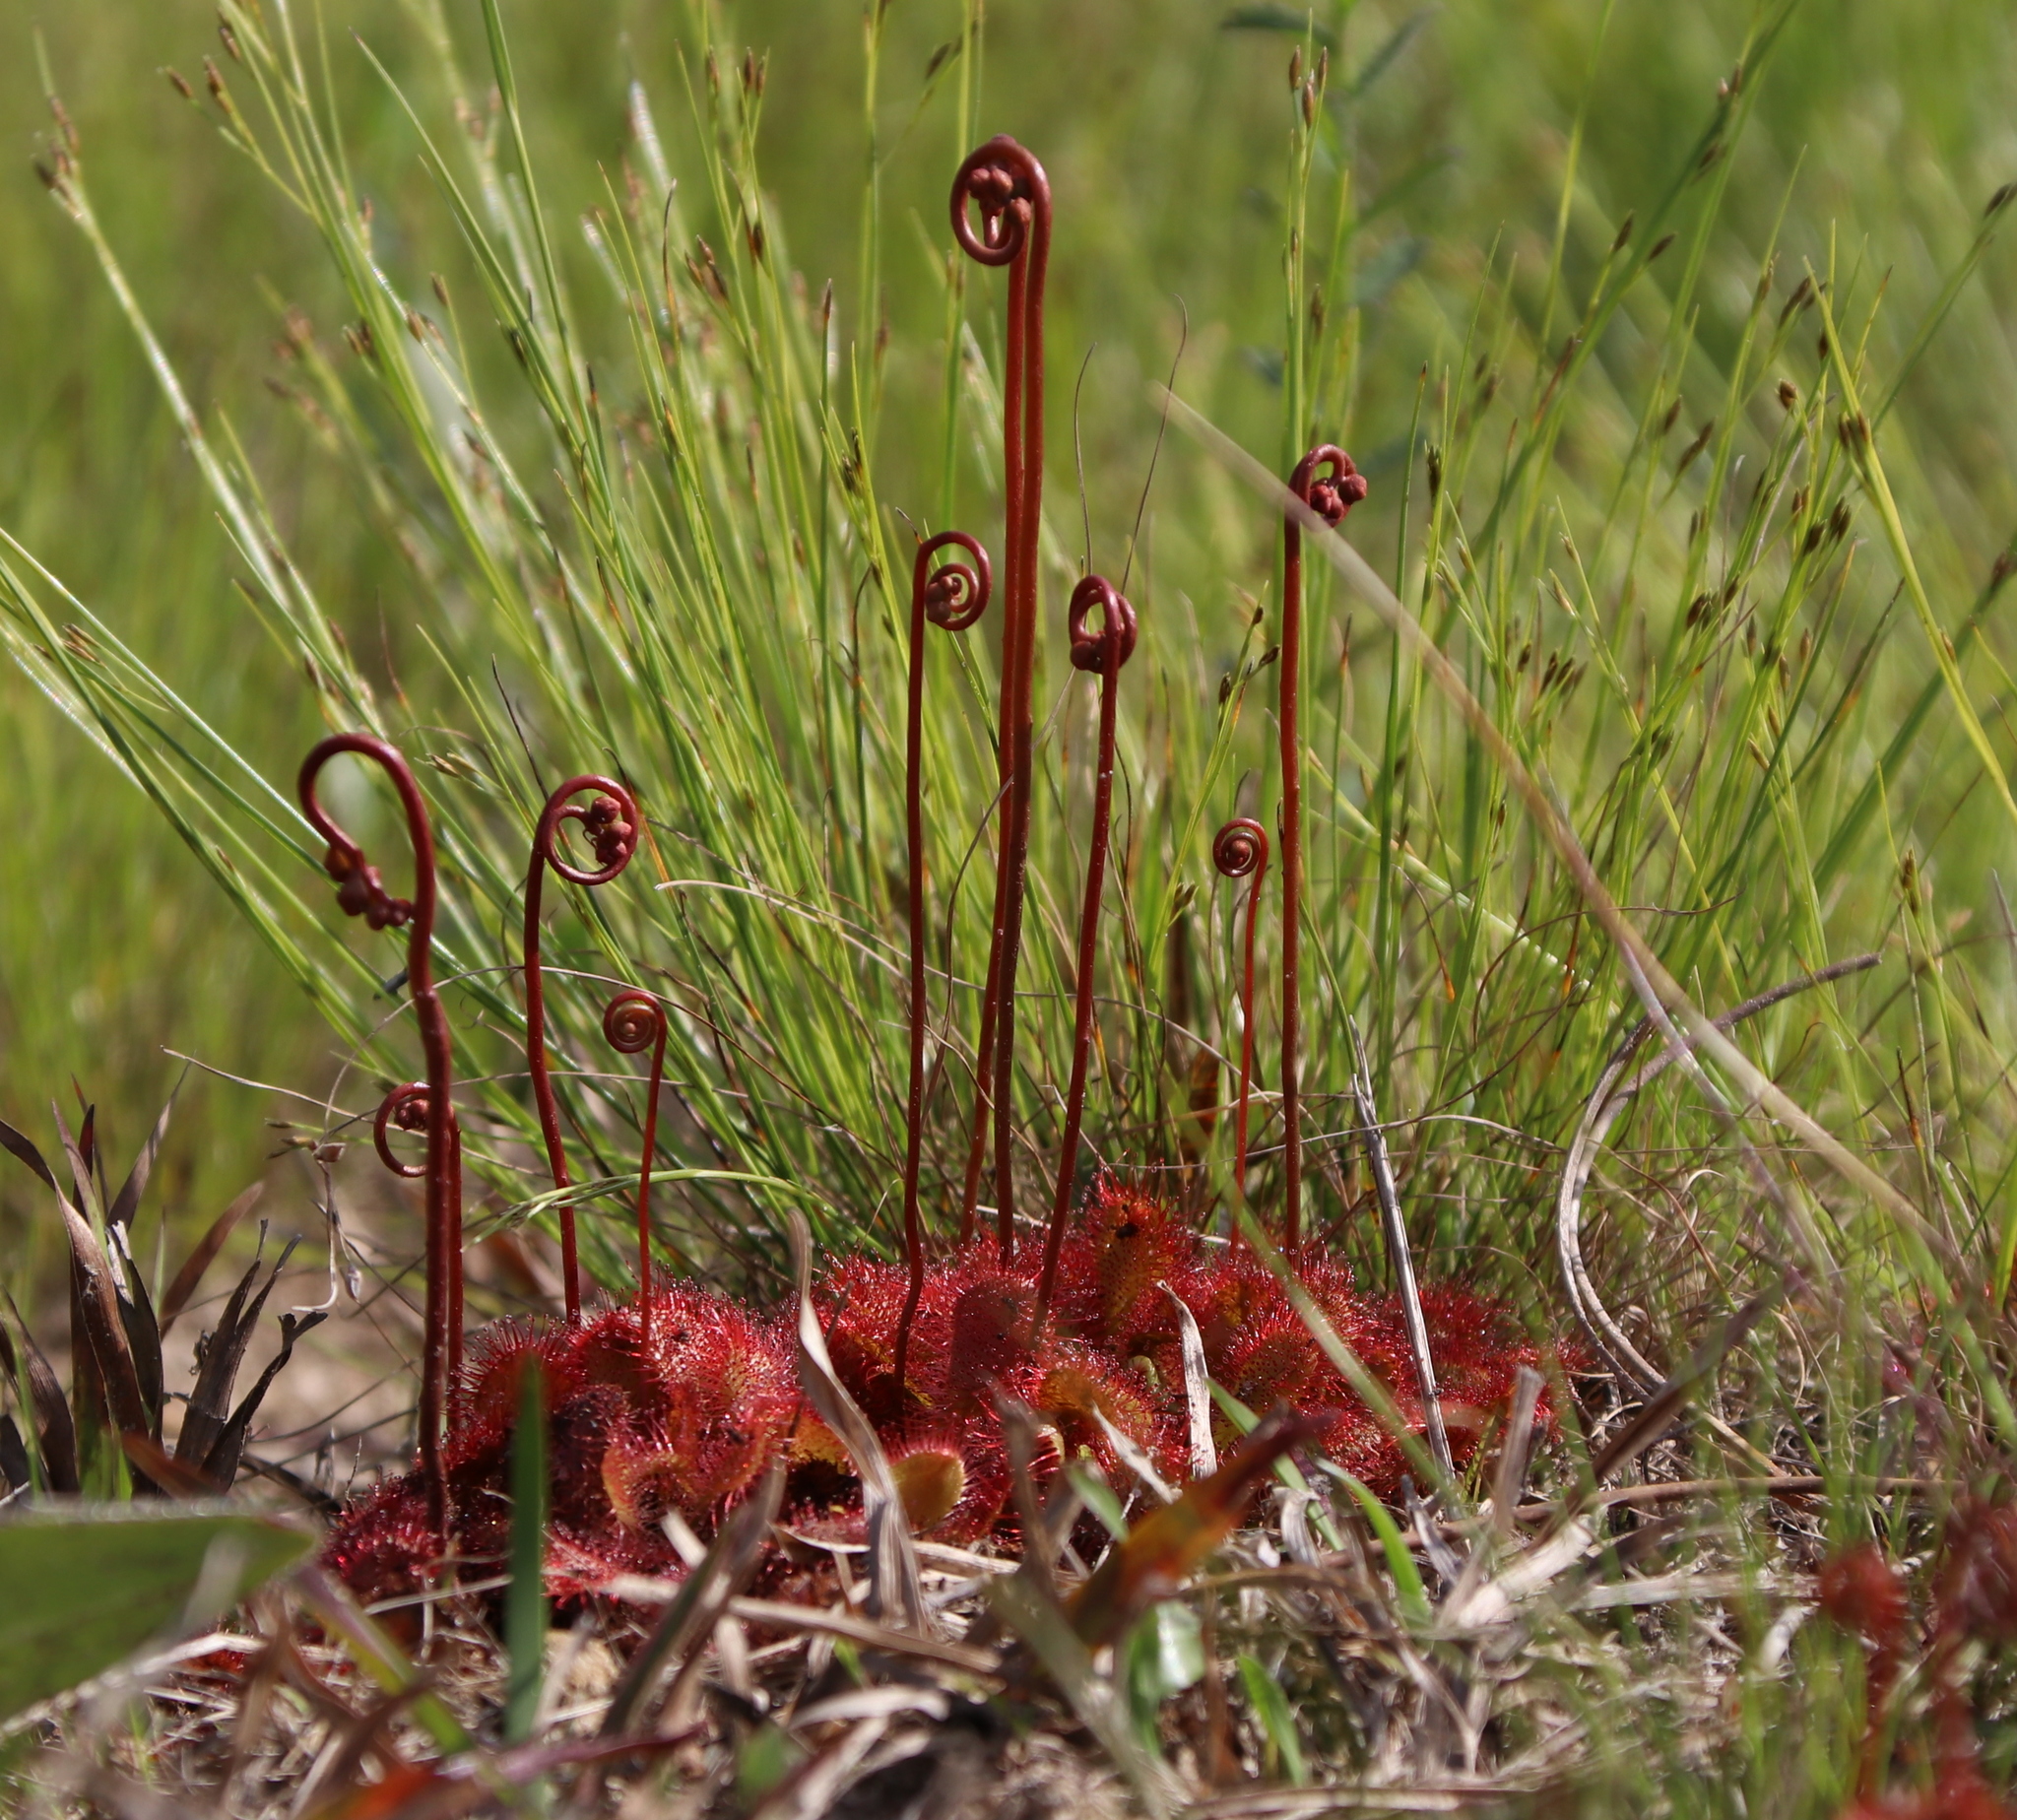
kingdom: Plantae
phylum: Tracheophyta
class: Magnoliopsida
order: Caryophyllales
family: Droseraceae
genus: Drosera
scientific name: Drosera capillaris
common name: Pink sundew
